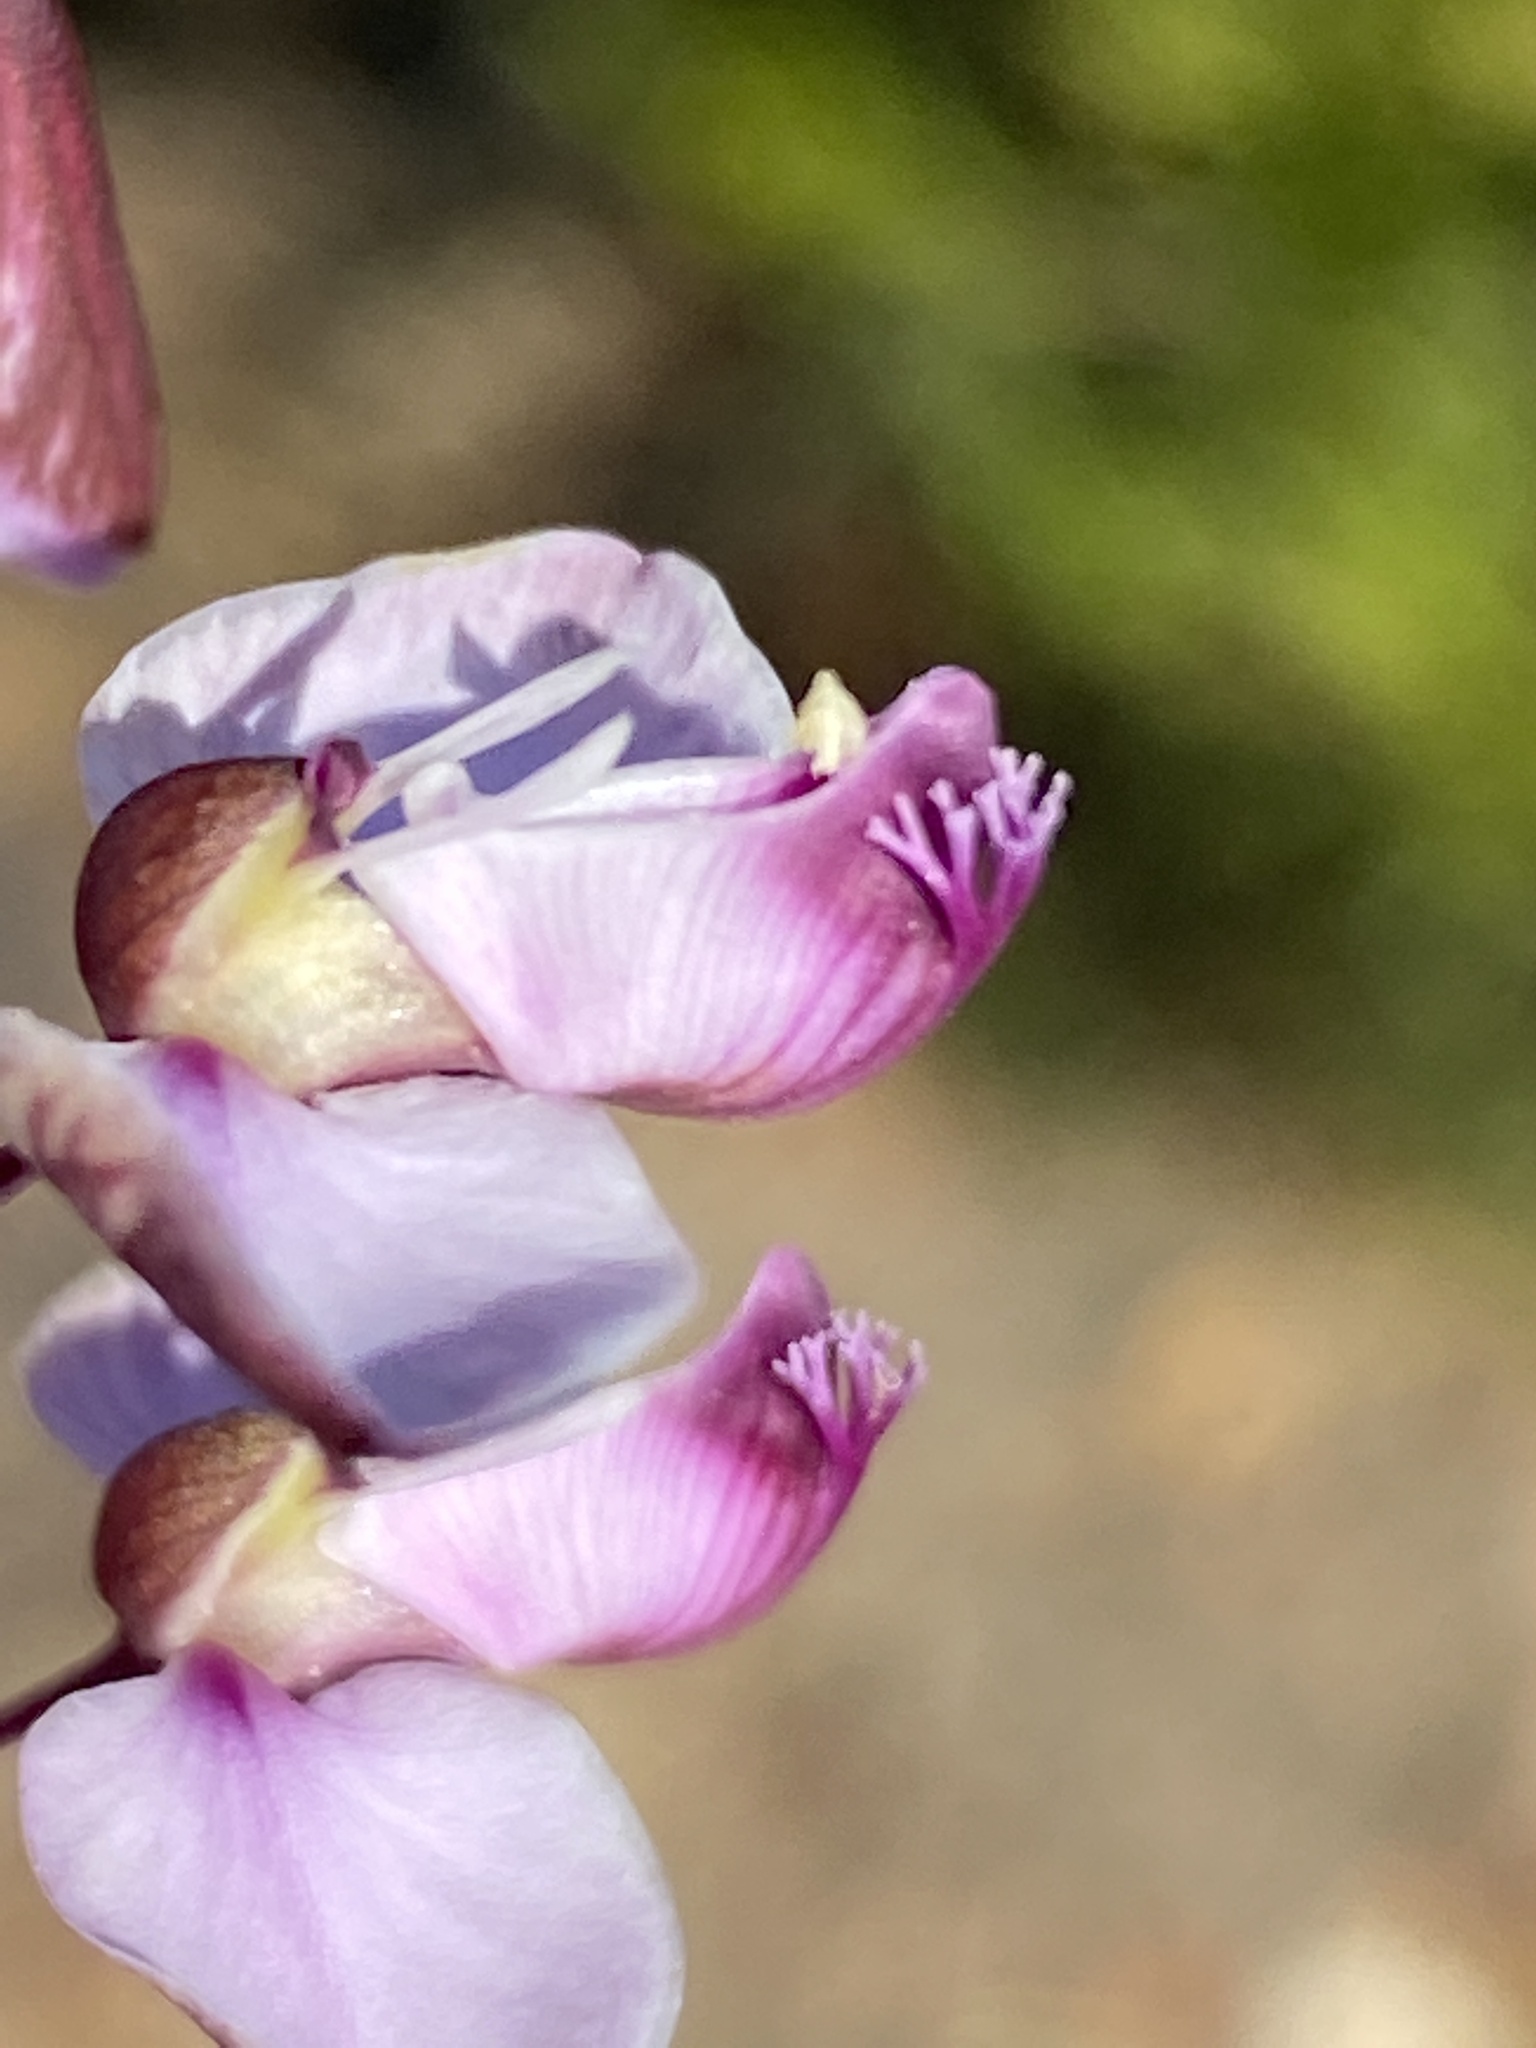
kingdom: Plantae
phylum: Tracheophyta
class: Magnoliopsida
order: Fabales
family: Polygalaceae
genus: Polygala
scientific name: Polygala microlopha
